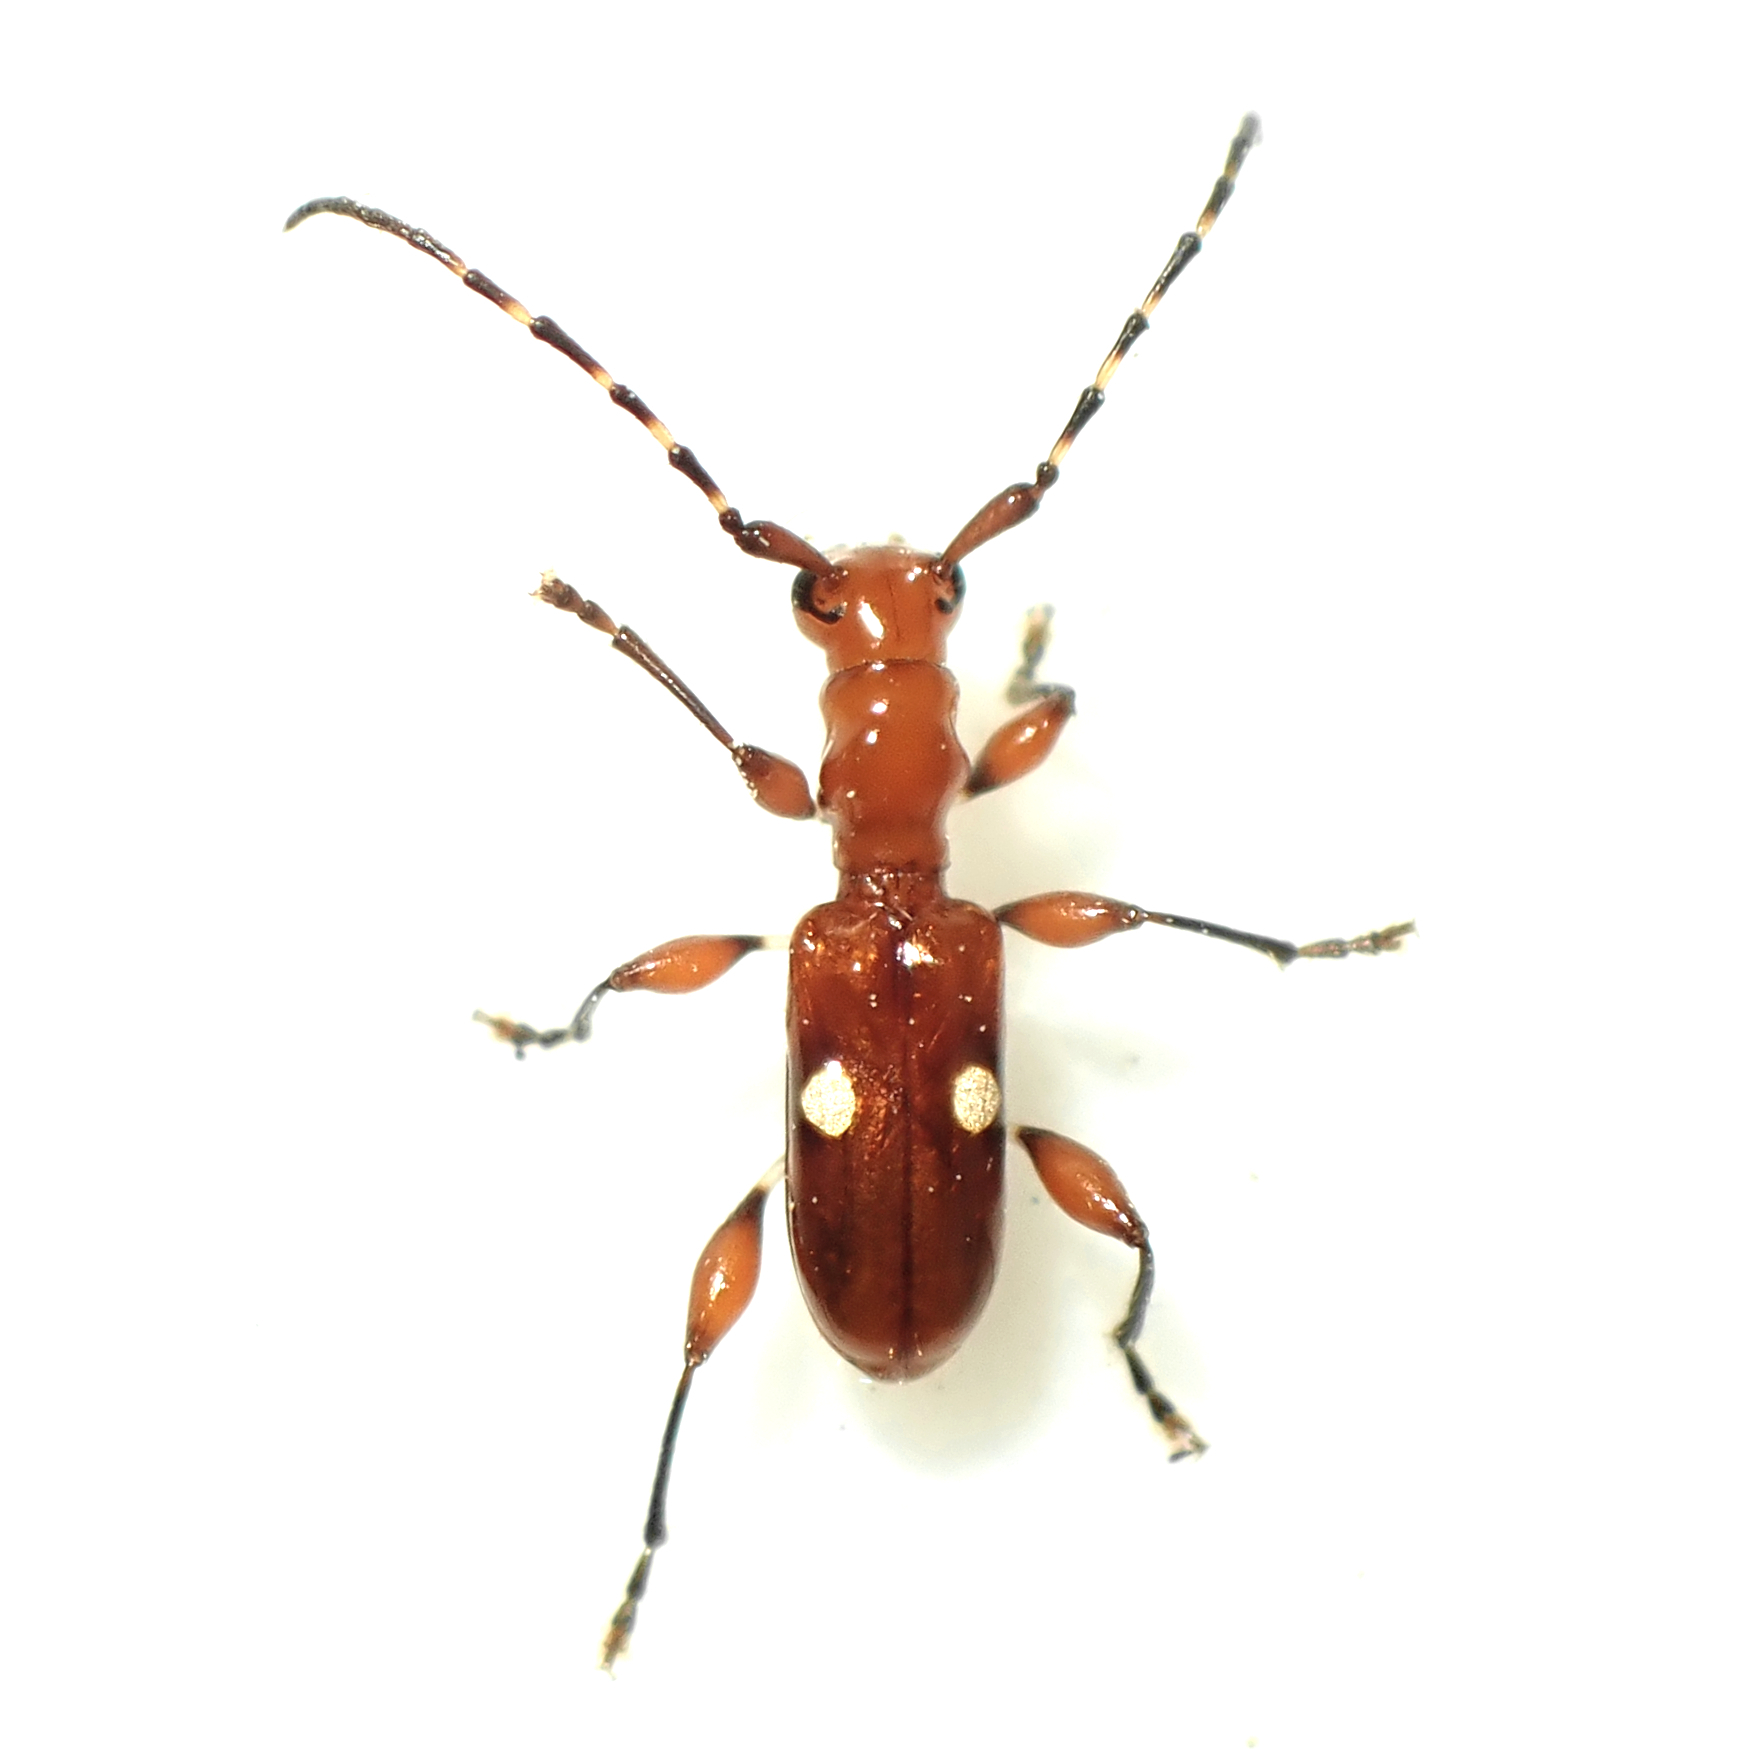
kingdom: Animalia
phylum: Arthropoda
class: Insecta
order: Coleoptera
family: Cerambycidae
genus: Zorion
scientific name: Zorion batesi
